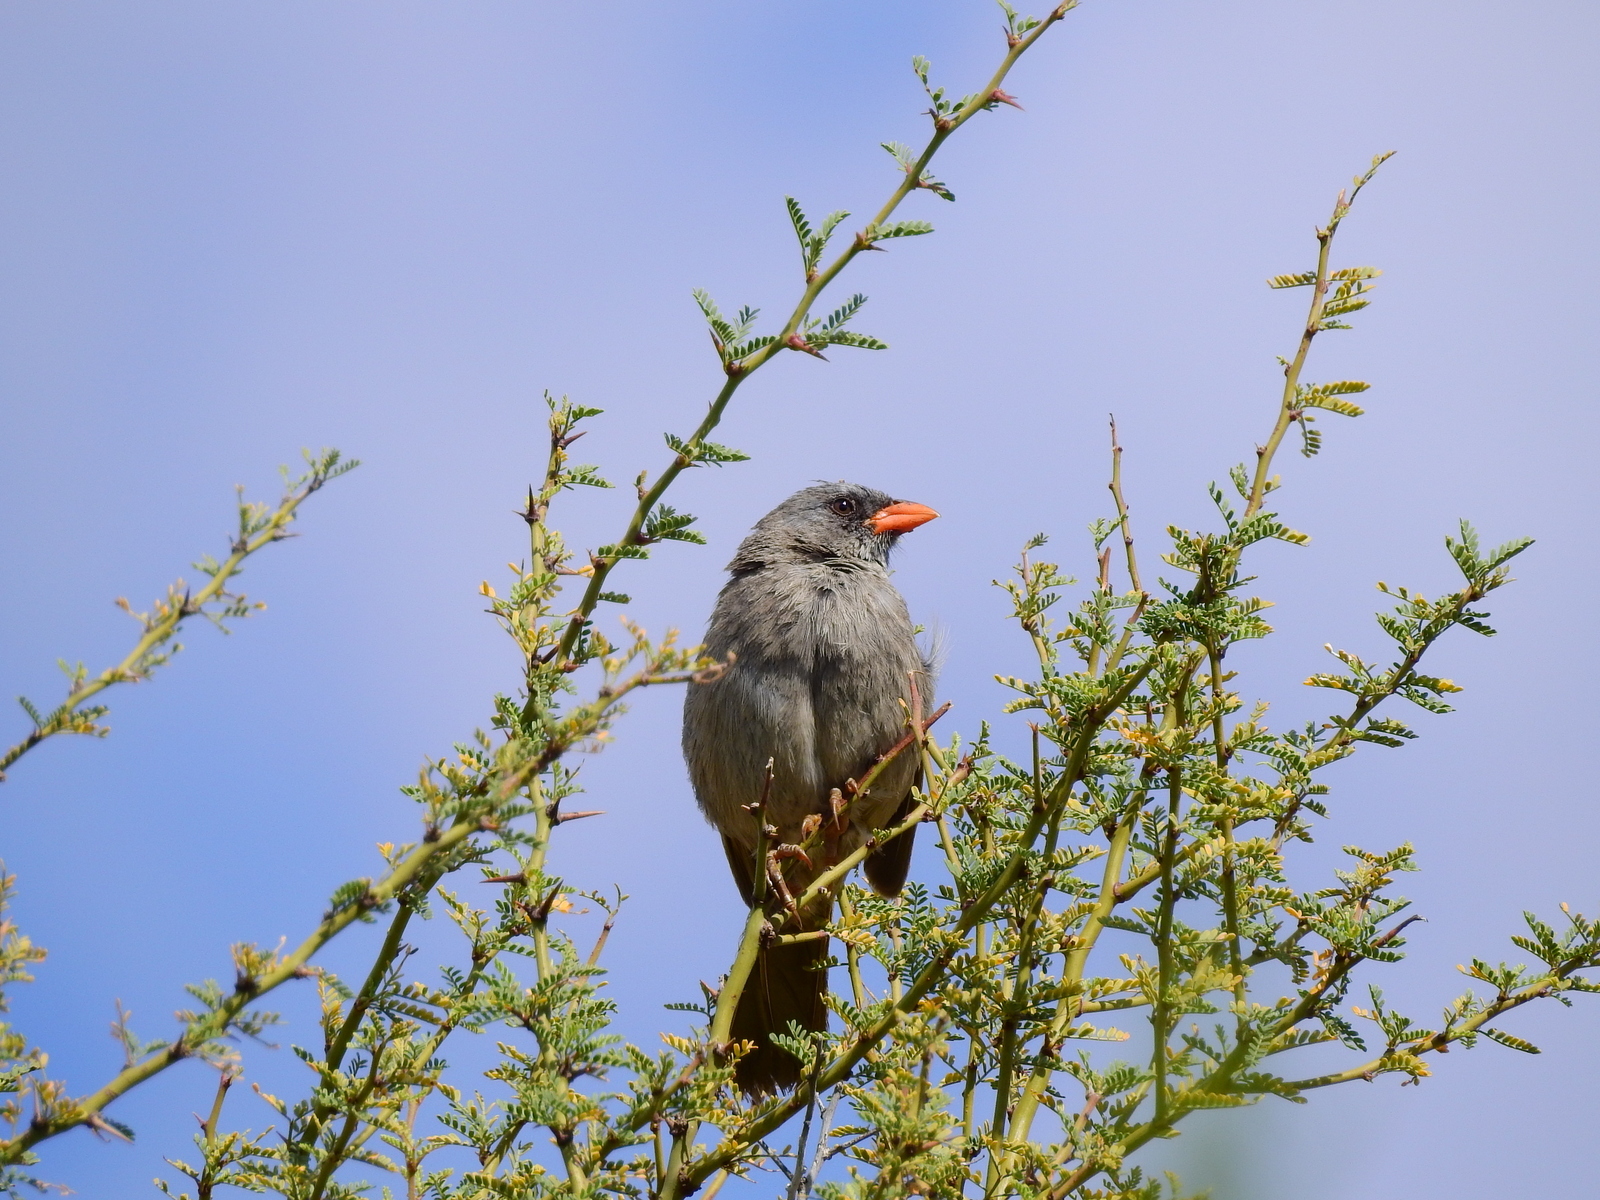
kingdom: Animalia
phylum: Chordata
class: Aves
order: Passeriformes
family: Thraupidae
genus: Embernagra
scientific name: Embernagra platensis
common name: Pampa finch
